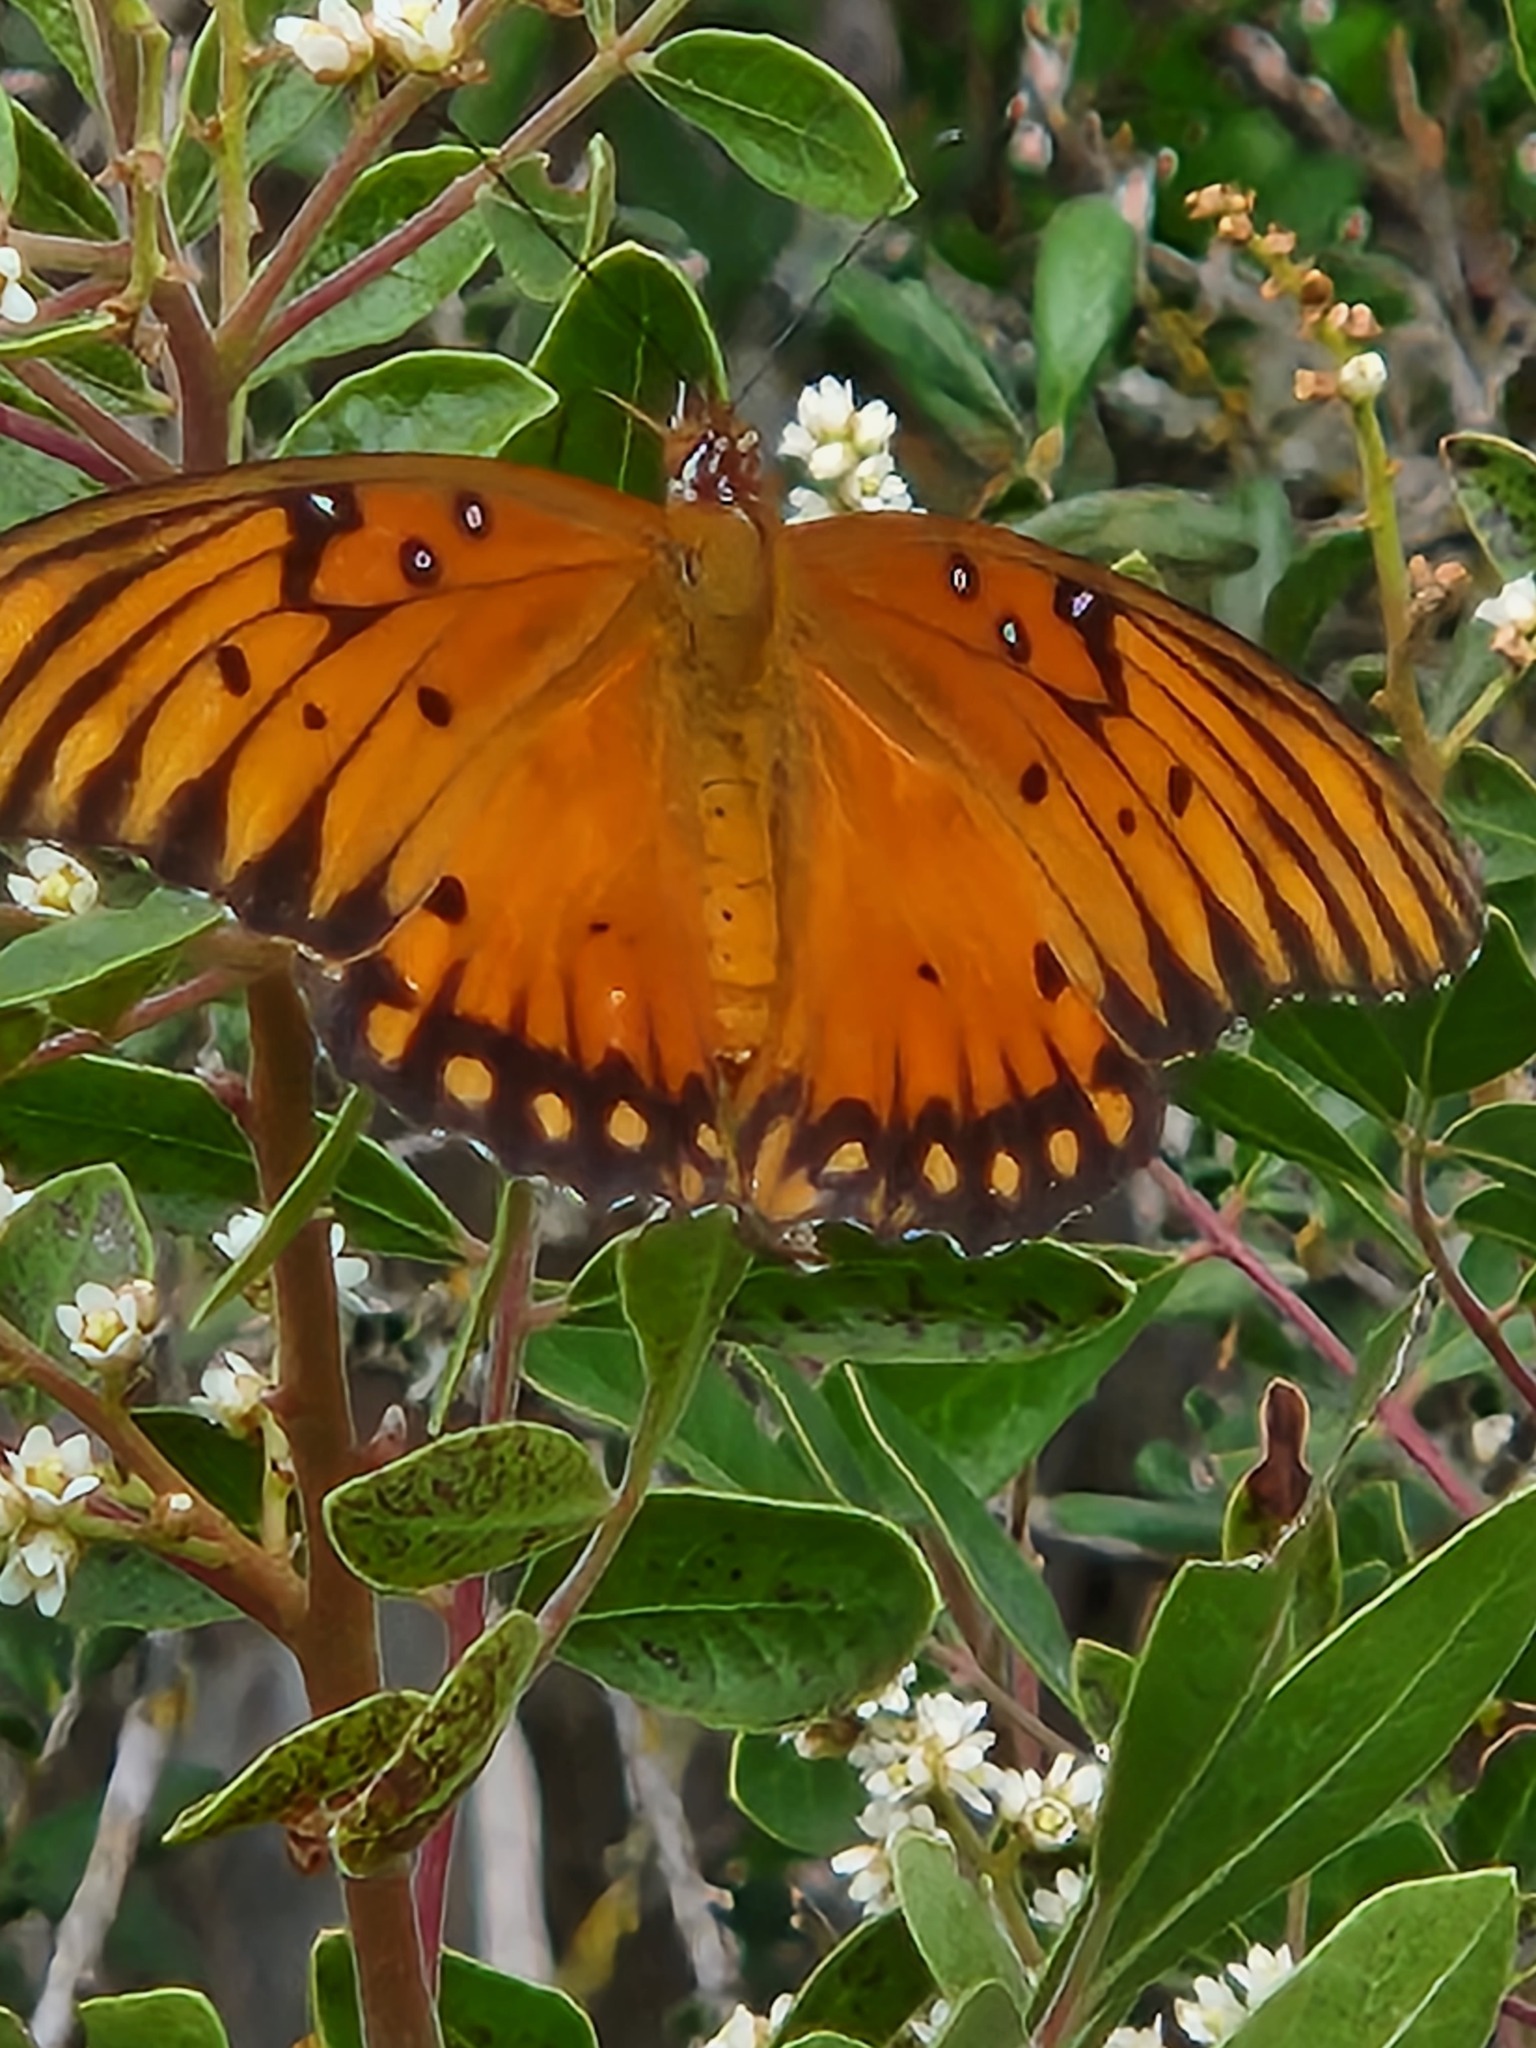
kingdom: Animalia
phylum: Arthropoda
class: Insecta
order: Lepidoptera
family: Nymphalidae
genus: Dione
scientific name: Dione vanillae
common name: Gulf fritillary
